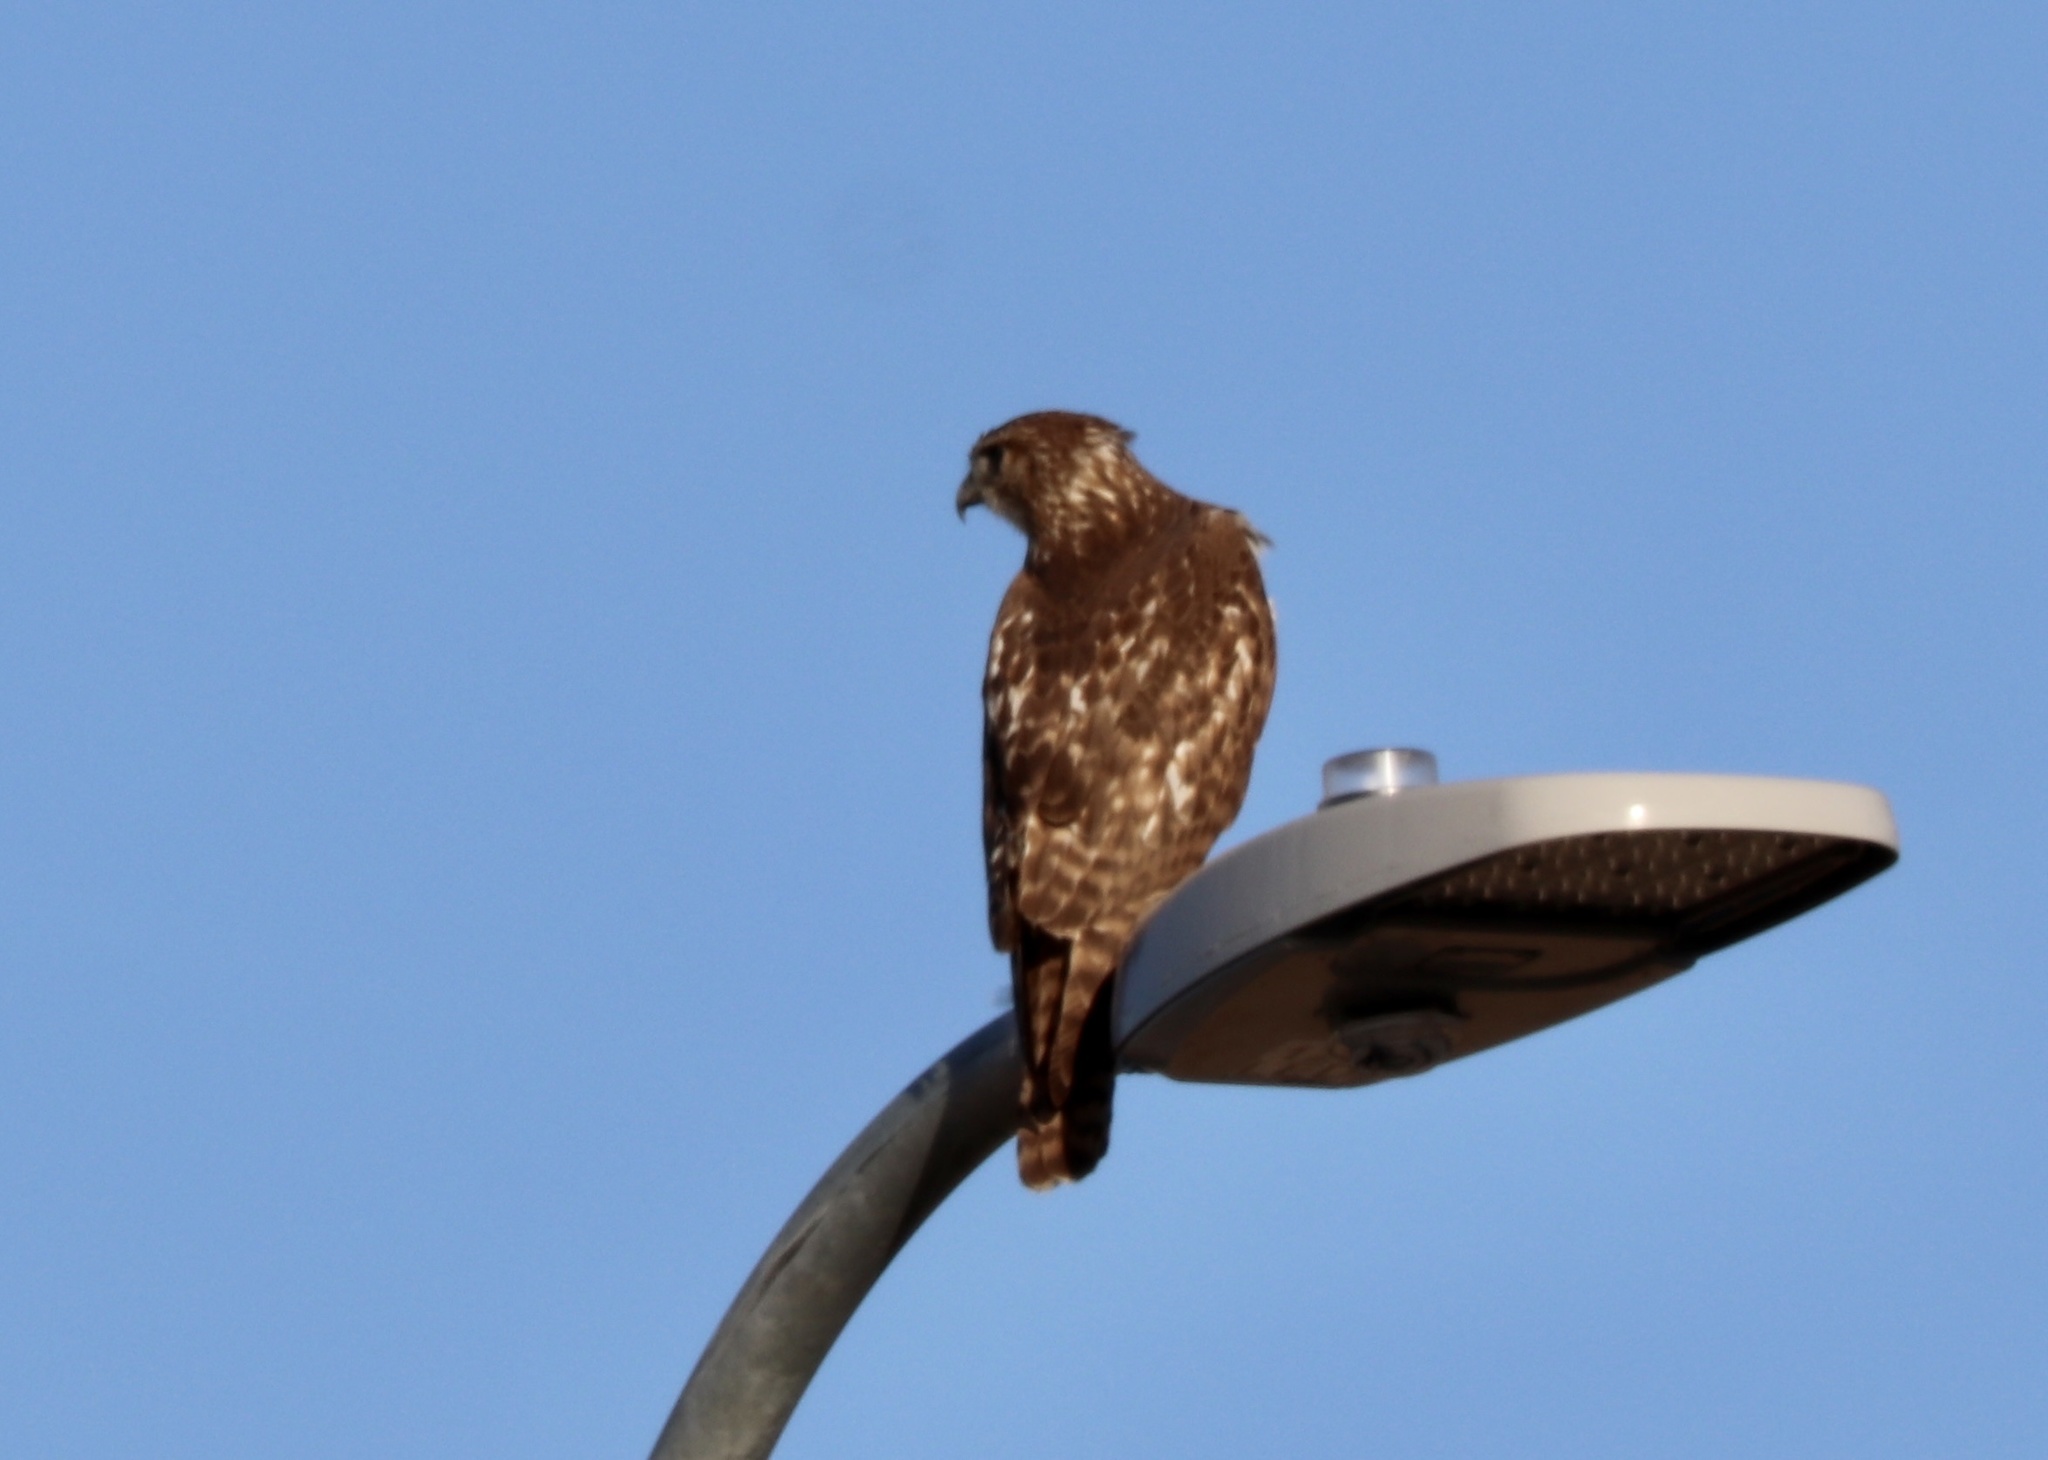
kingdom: Animalia
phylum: Chordata
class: Aves
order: Accipitriformes
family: Accipitridae
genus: Buteo
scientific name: Buteo lineatus
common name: Red-shouldered hawk
